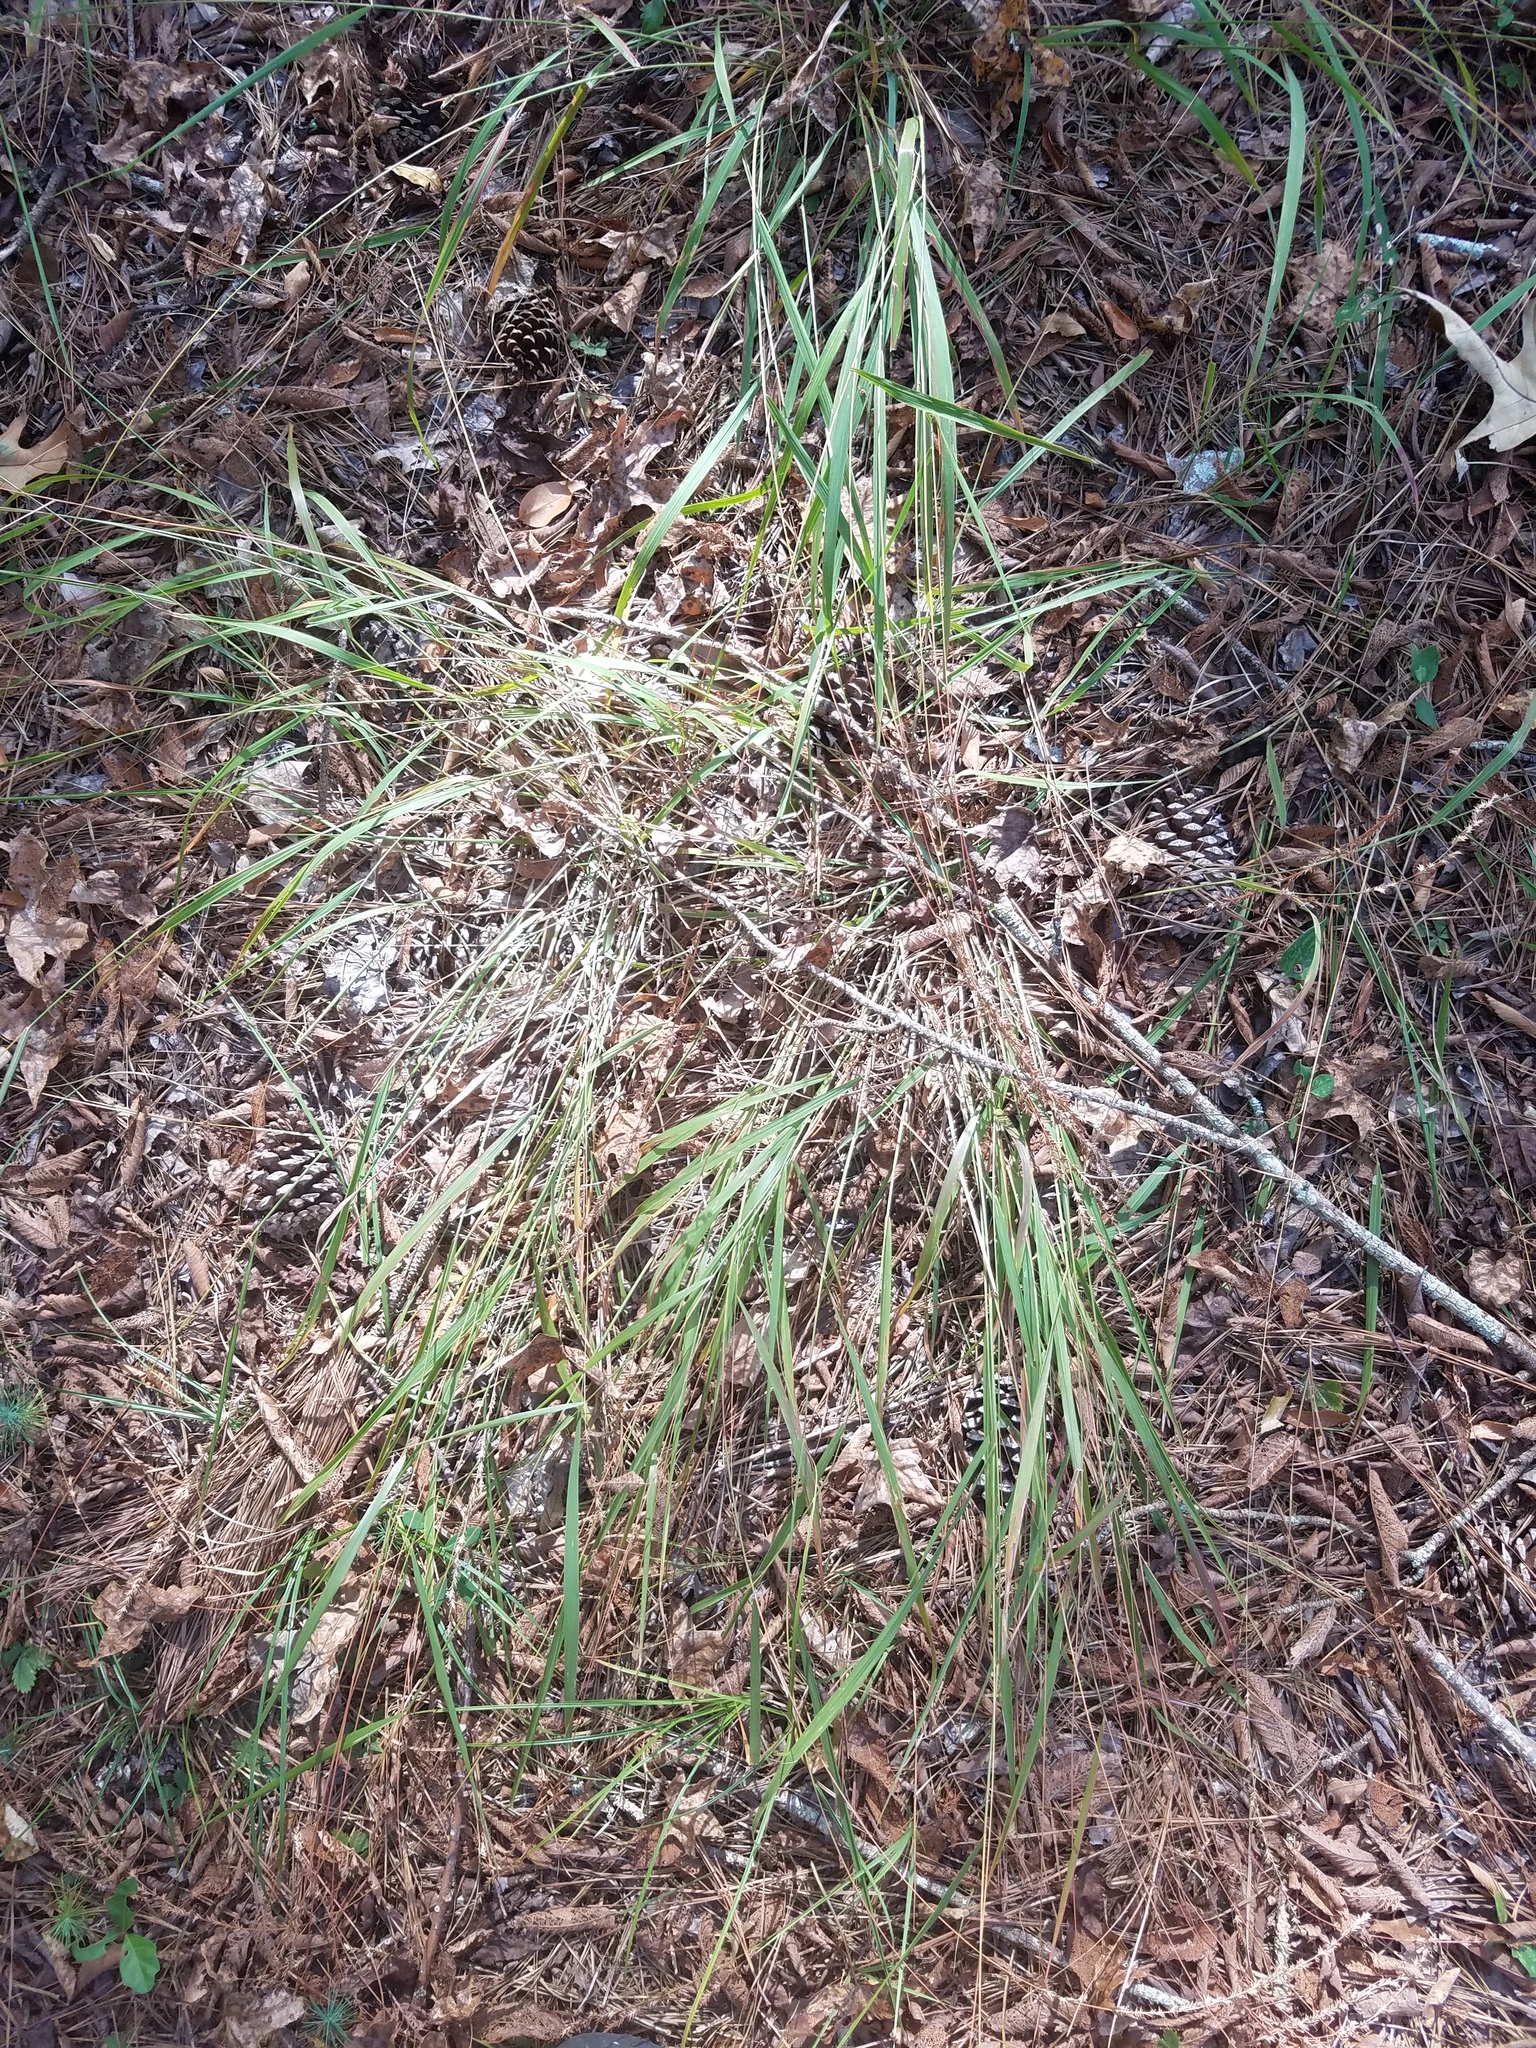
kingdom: Plantae
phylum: Tracheophyta
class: Liliopsida
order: Poales
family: Poaceae
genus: Chasmanthium
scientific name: Chasmanthium laxum
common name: Slender chasmanthium
